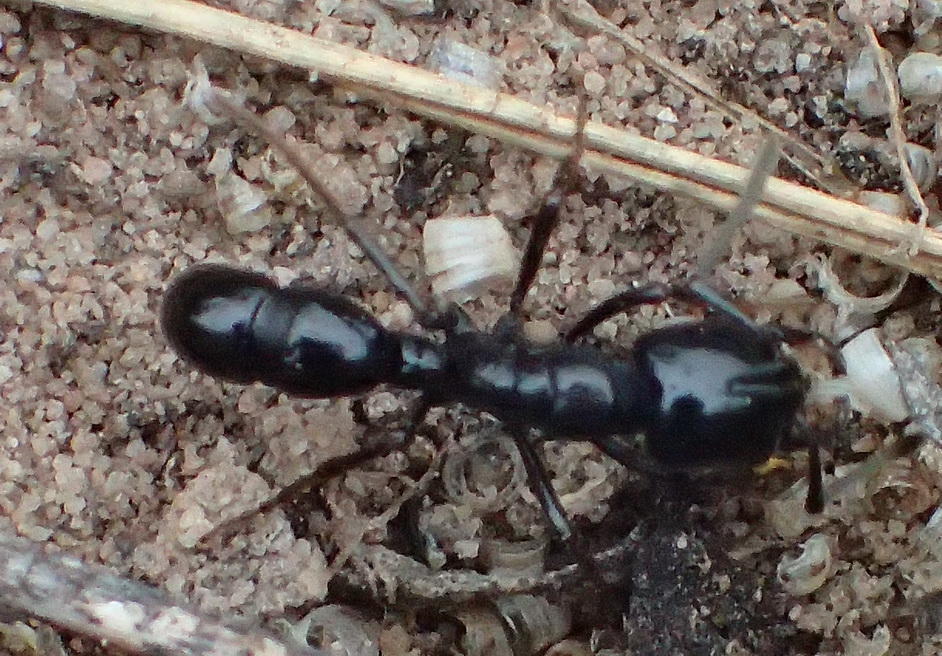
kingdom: Animalia
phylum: Arthropoda
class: Insecta
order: Hymenoptera
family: Formicidae
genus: Plectroctena
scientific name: Plectroctena mandibularis
